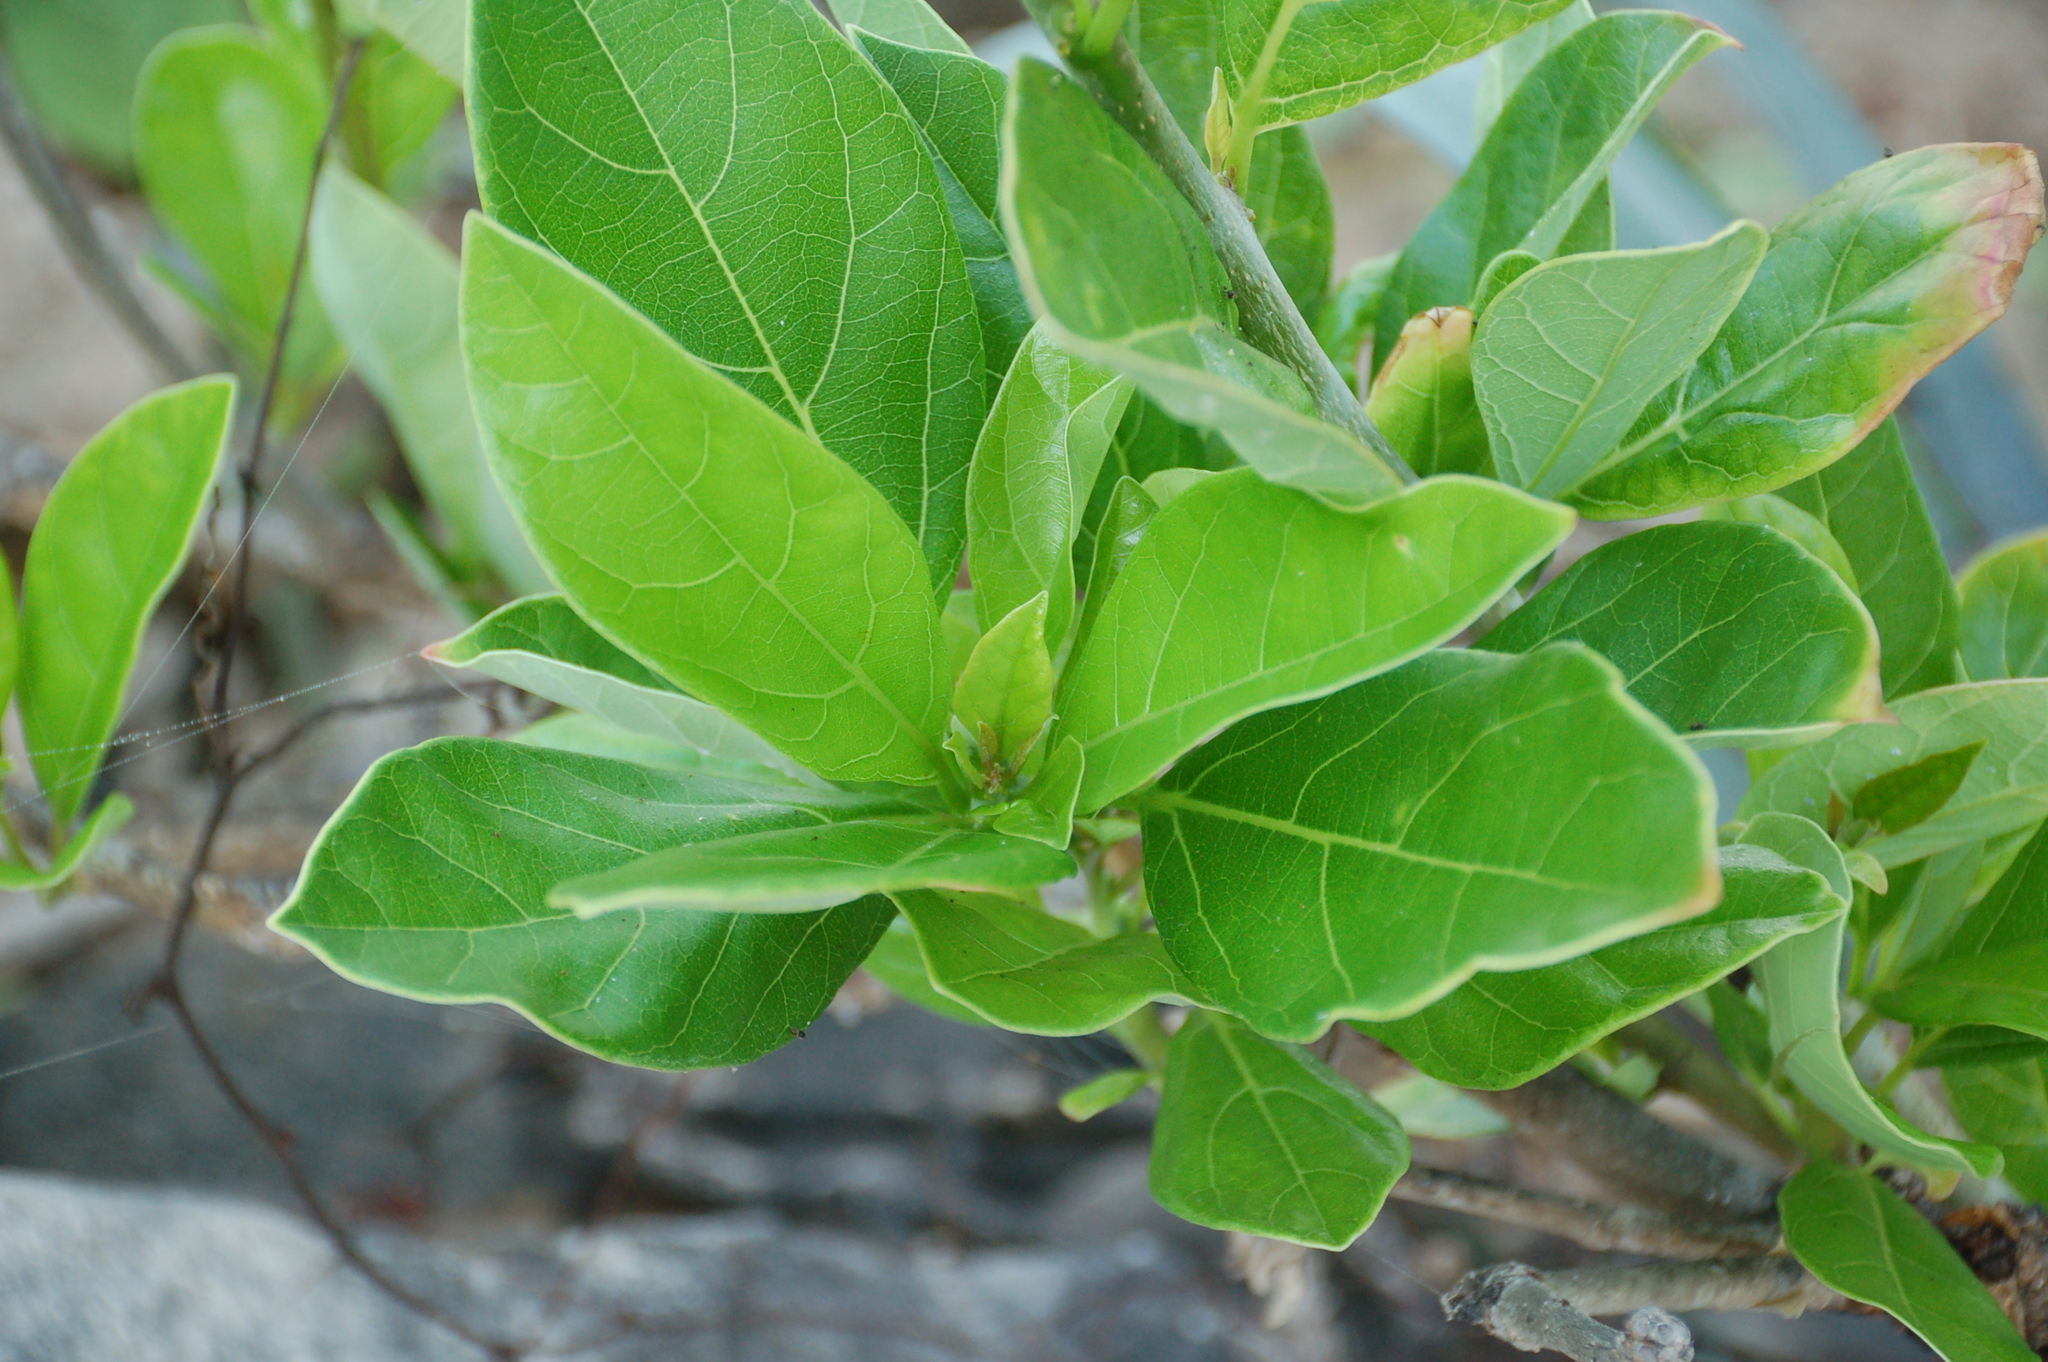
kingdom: Plantae
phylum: Tracheophyta
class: Magnoliopsida
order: Malpighiales
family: Euphorbiaceae
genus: Jatropha
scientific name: Jatropha standleyi
